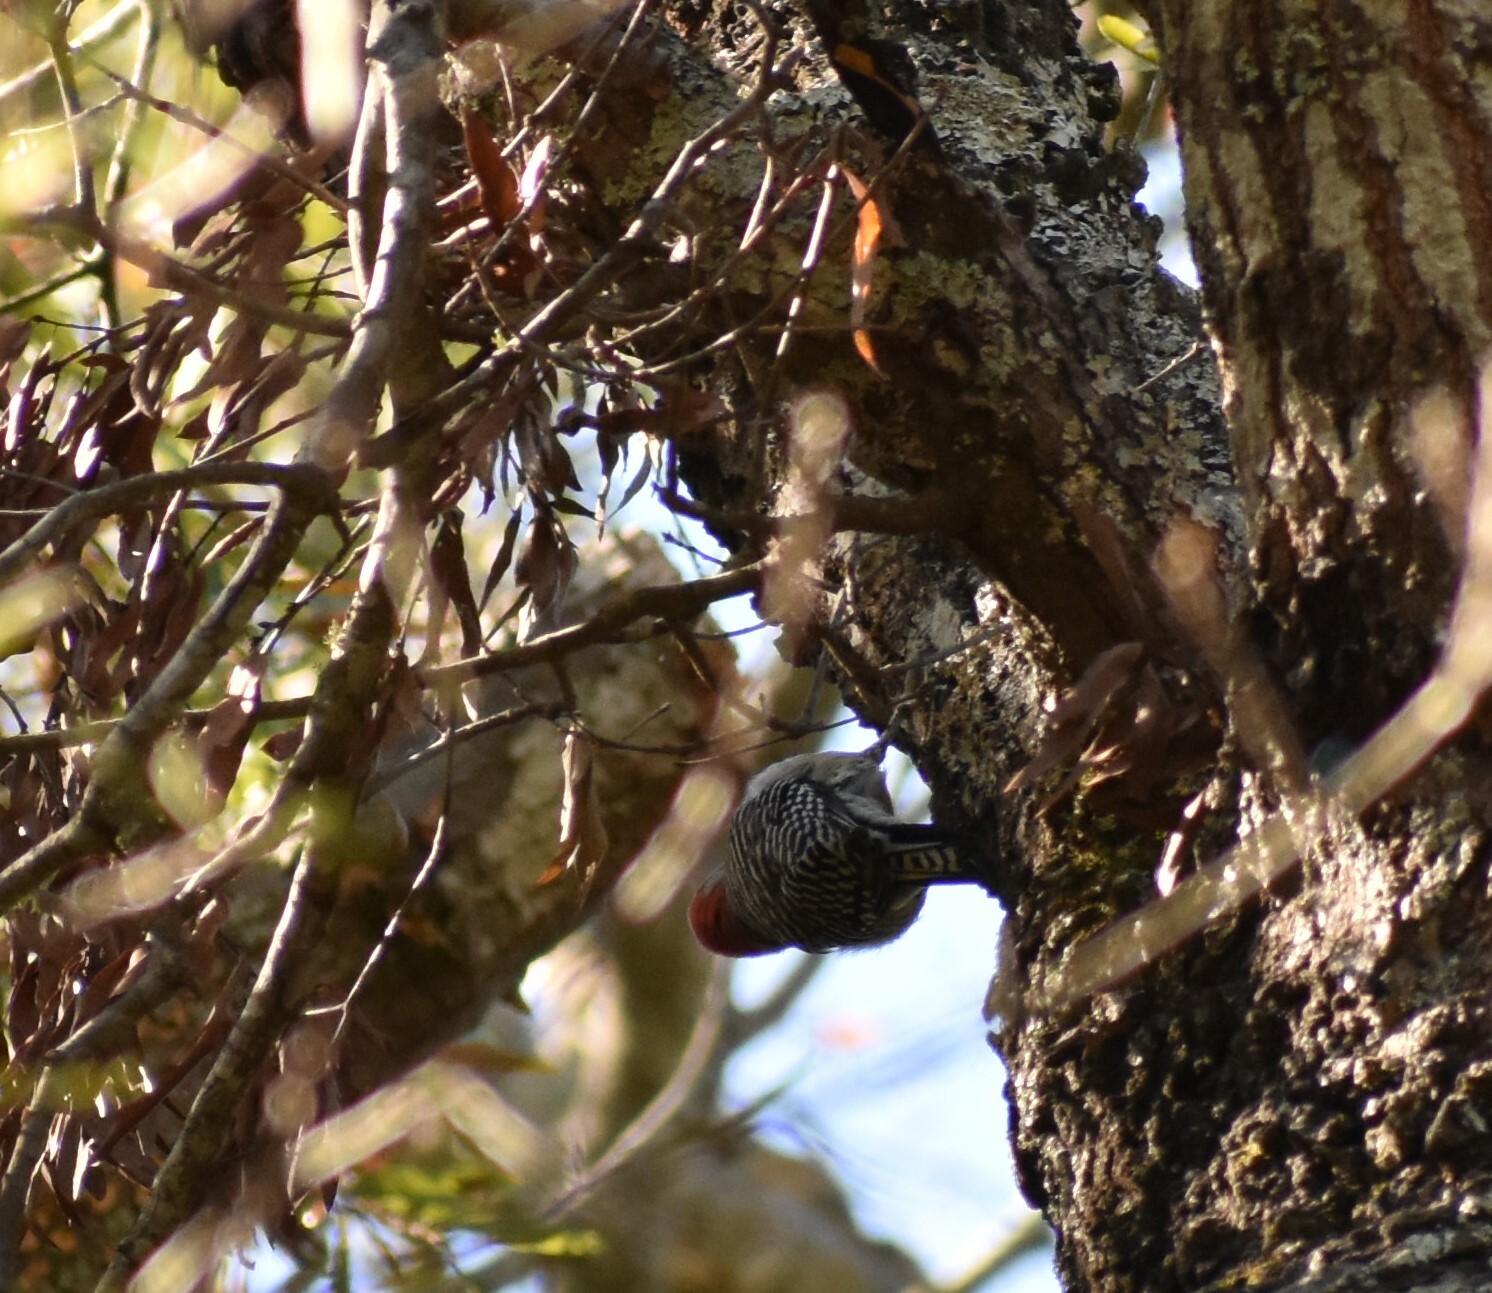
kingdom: Animalia
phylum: Chordata
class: Aves
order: Piciformes
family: Picidae
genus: Melanerpes
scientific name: Melanerpes carolinus
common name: Red-bellied woodpecker
